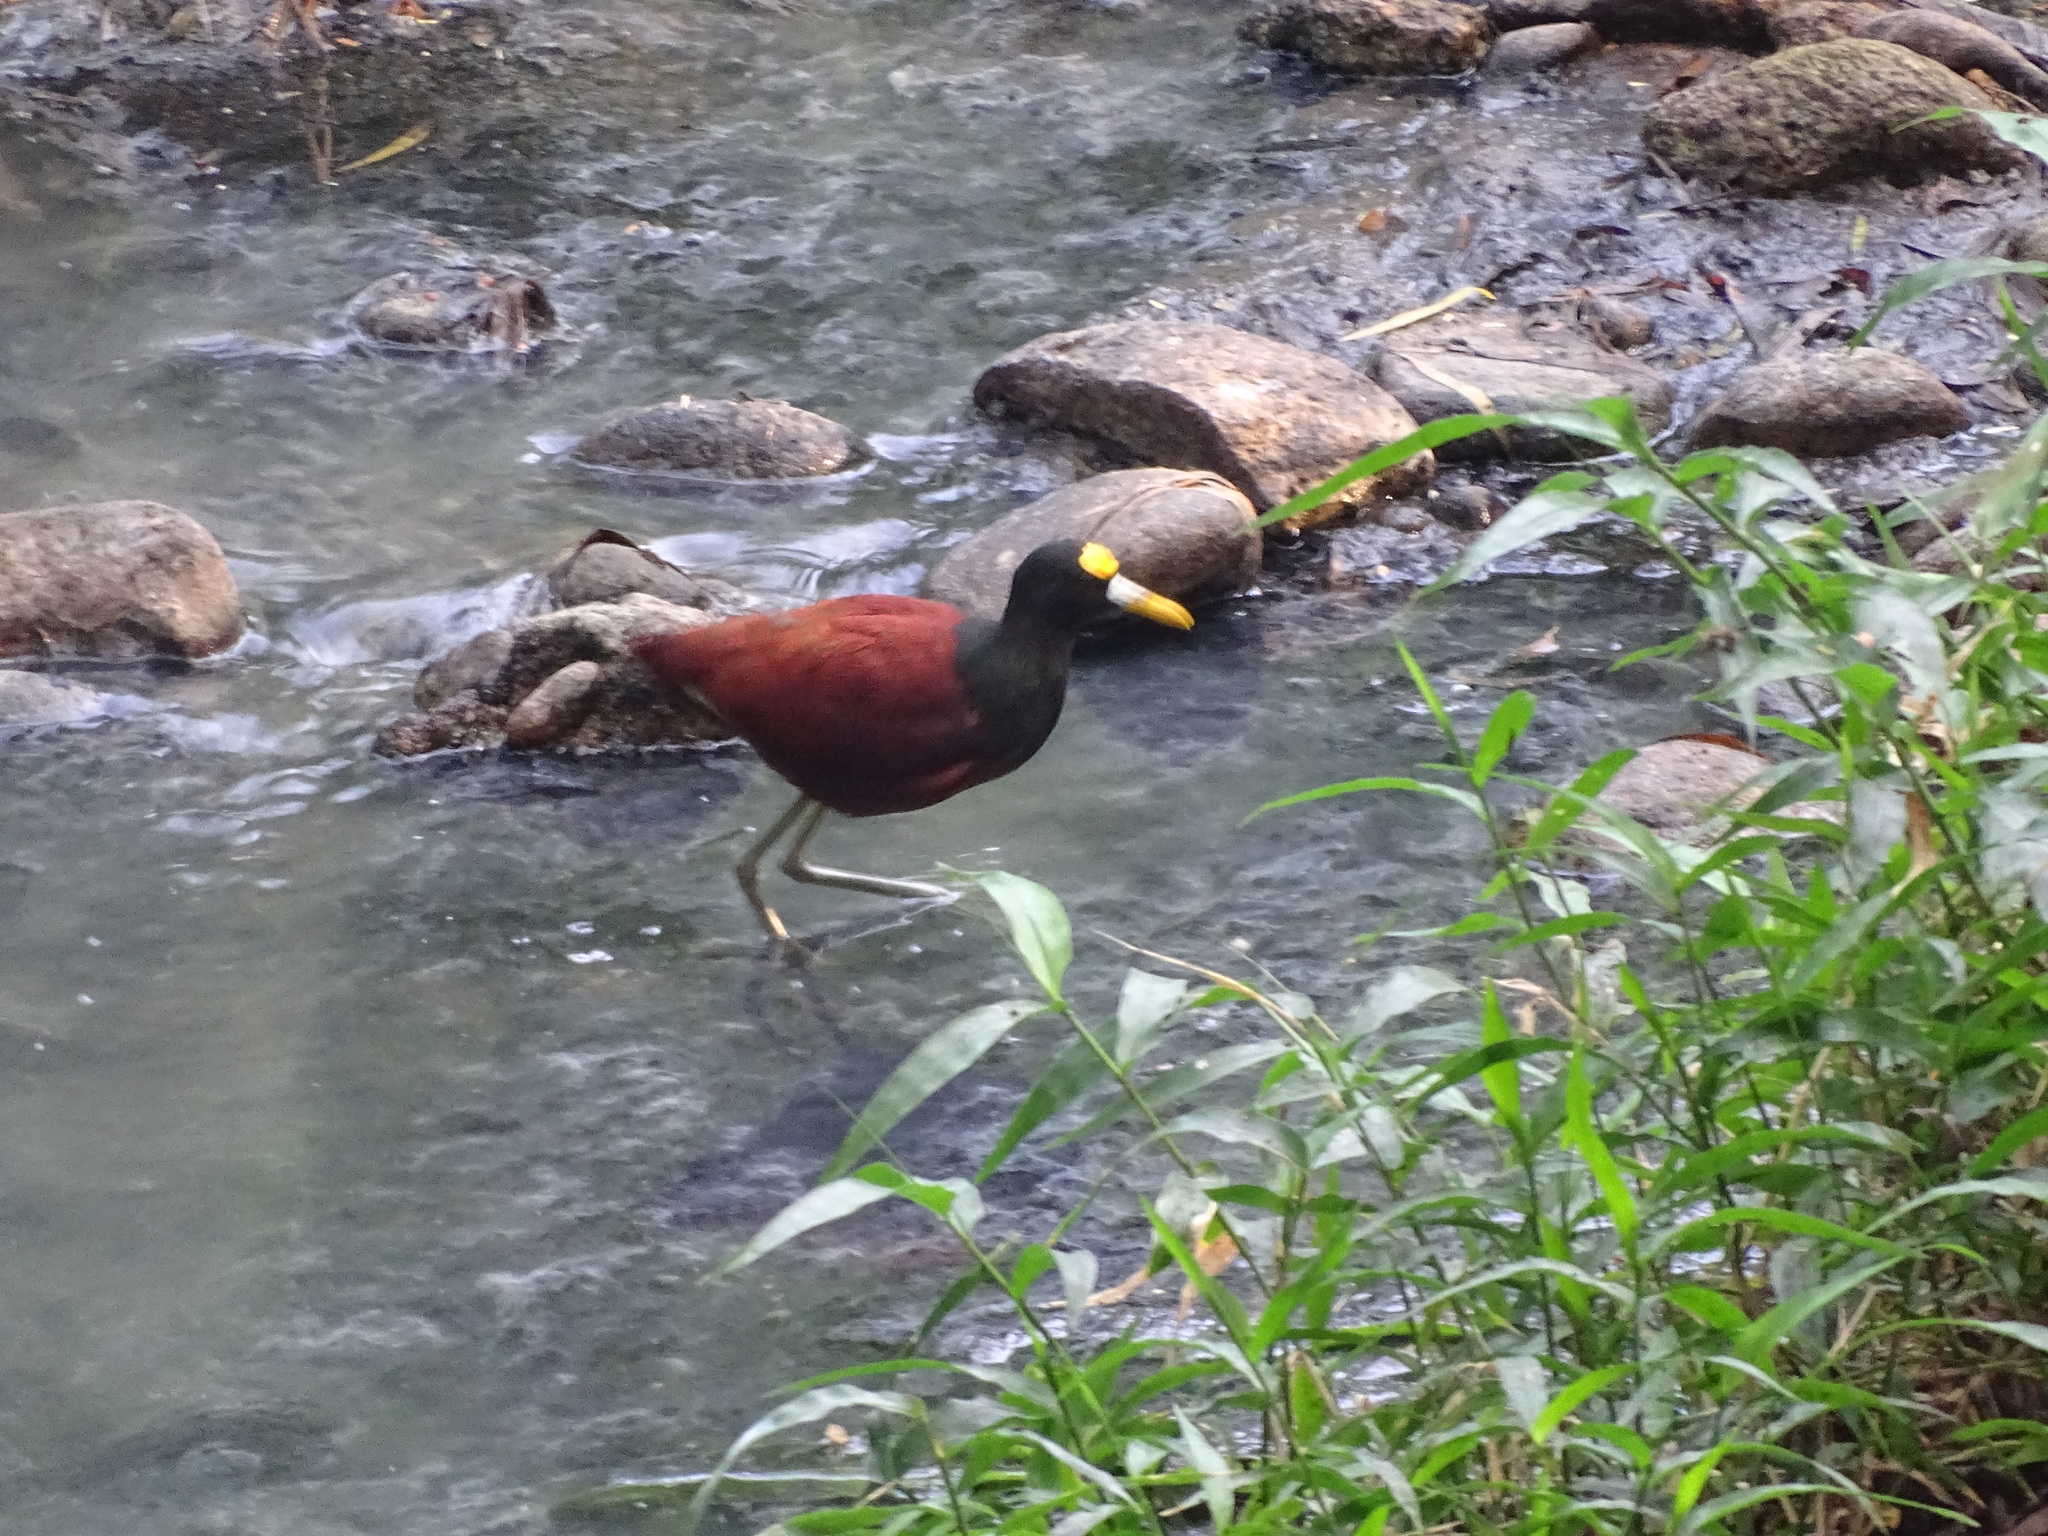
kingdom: Animalia
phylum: Chordata
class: Aves
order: Charadriiformes
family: Jacanidae
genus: Jacana
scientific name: Jacana spinosa
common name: Northern jacana
